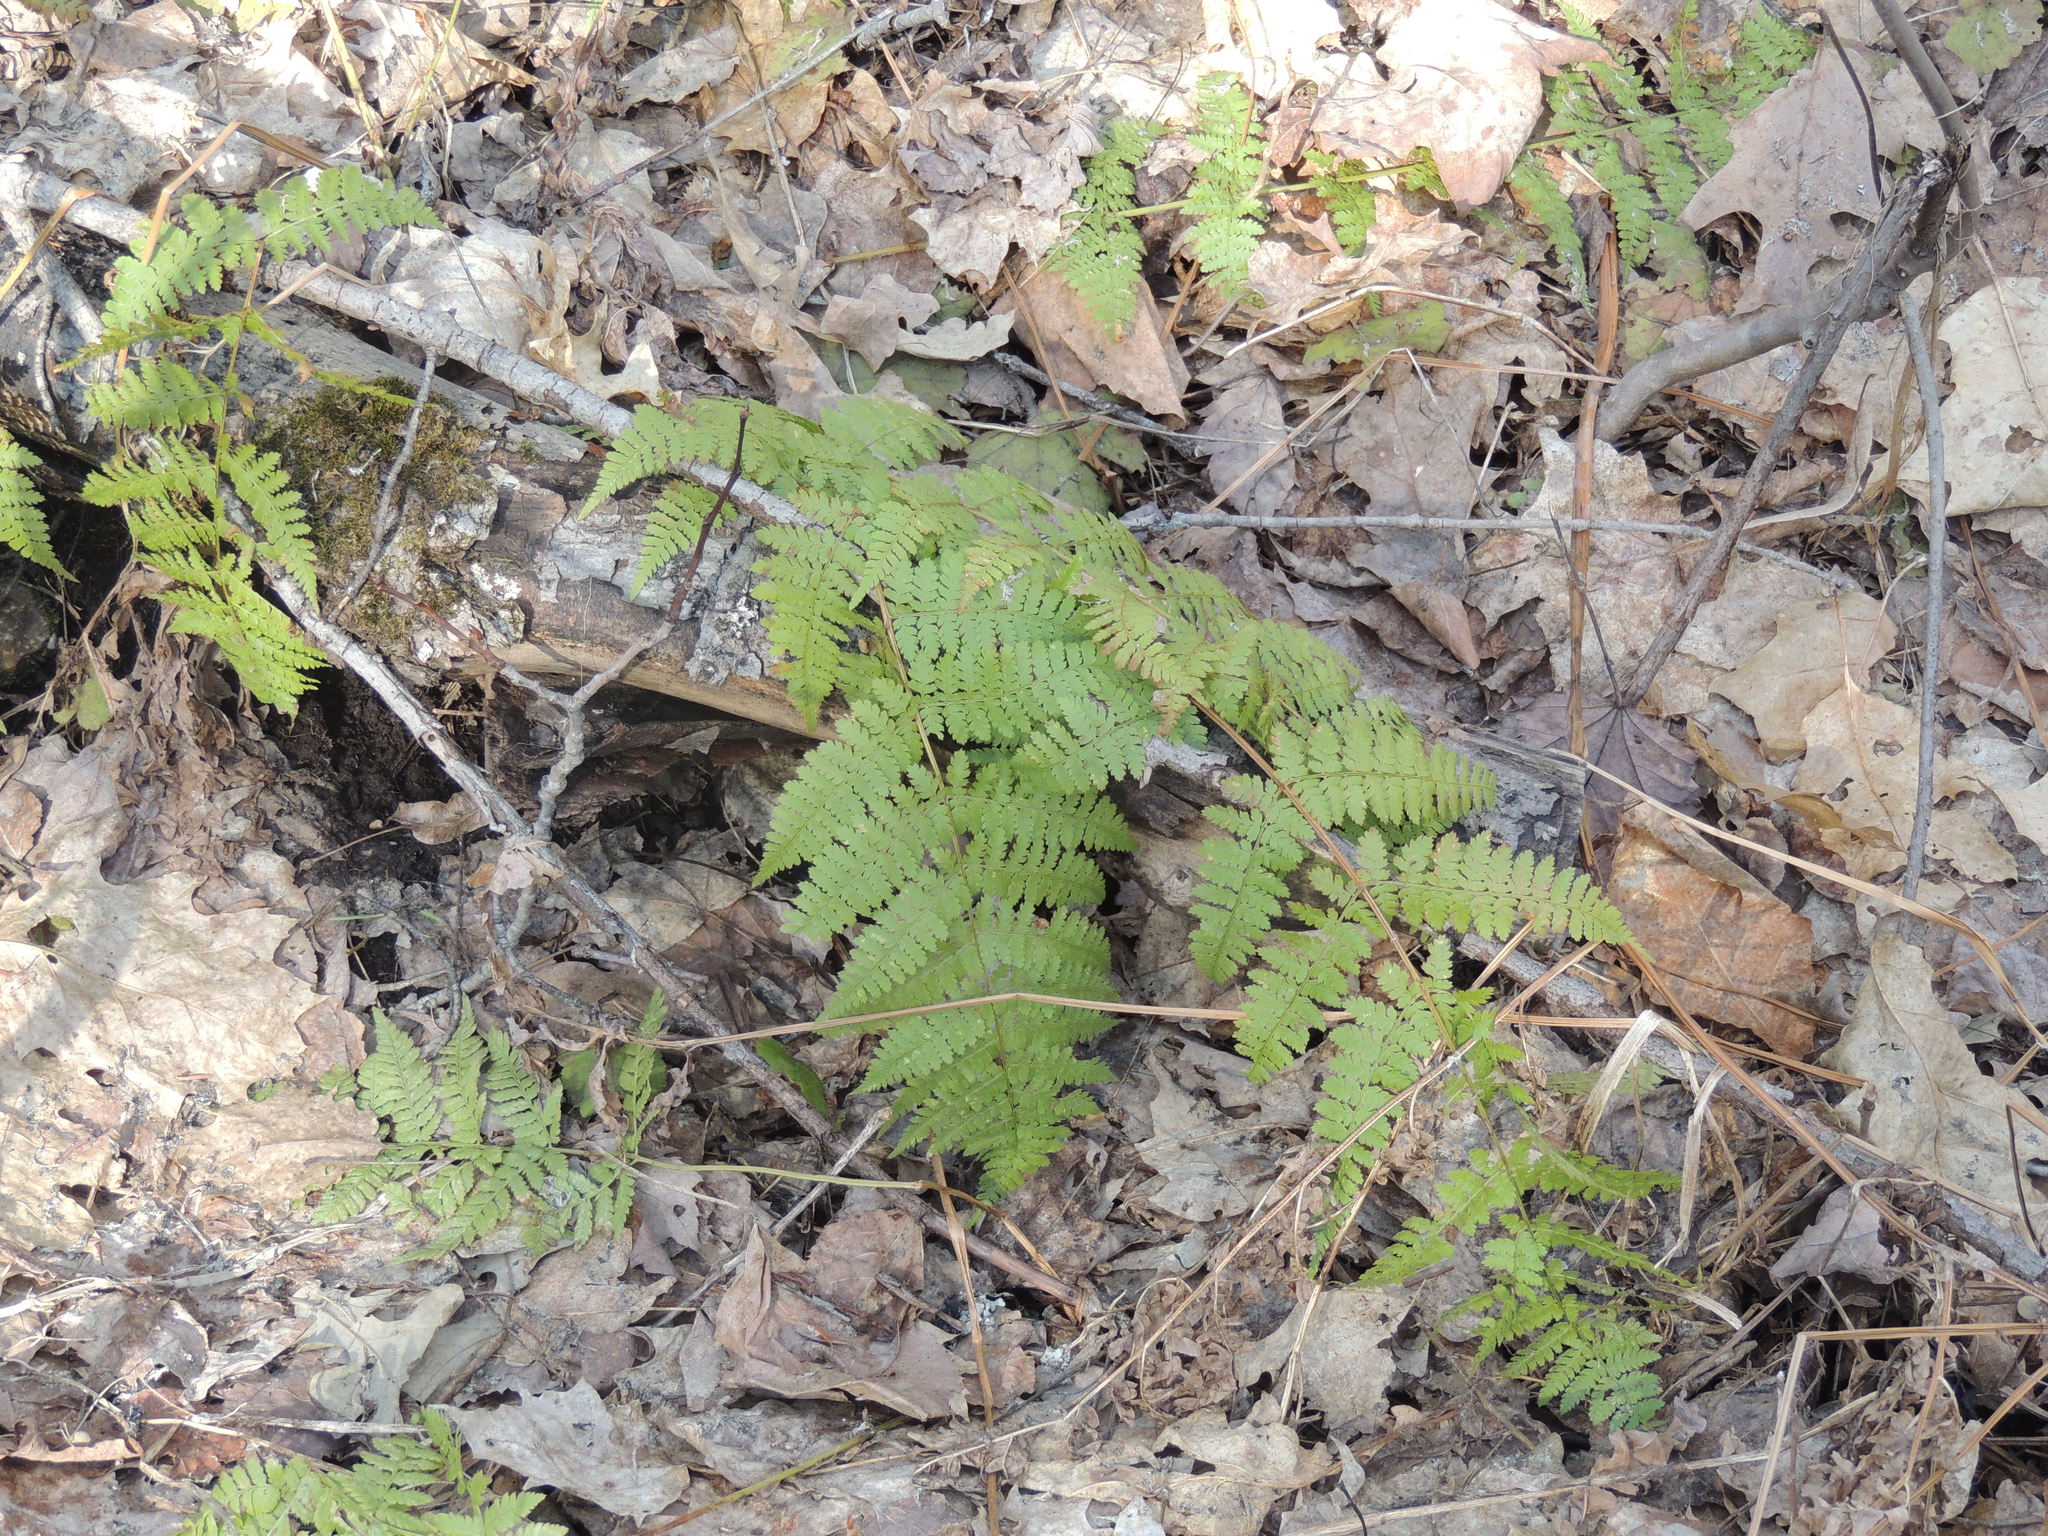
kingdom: Plantae
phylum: Tracheophyta
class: Polypodiopsida
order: Polypodiales
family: Dryopteridaceae
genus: Dryopteris
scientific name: Dryopteris intermedia
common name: Evergreen wood fern
